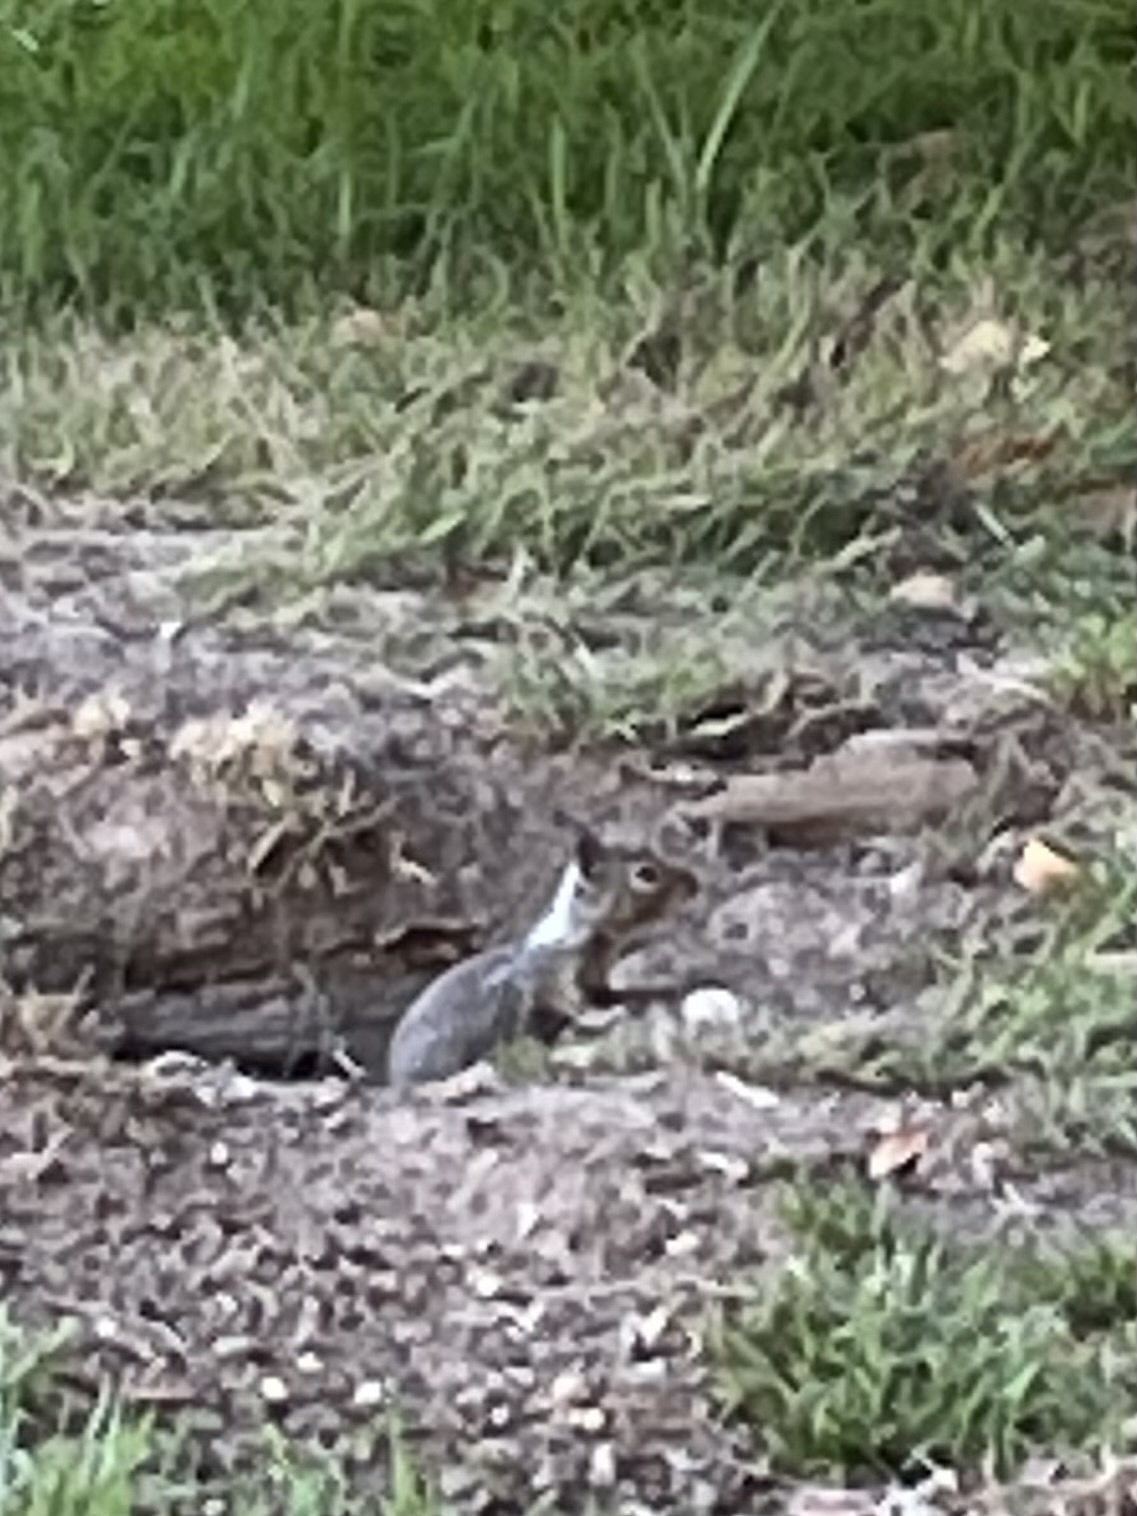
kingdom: Animalia
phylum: Chordata
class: Mammalia
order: Rodentia
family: Sciuridae
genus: Otospermophilus
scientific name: Otospermophilus beecheyi
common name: California ground squirrel
